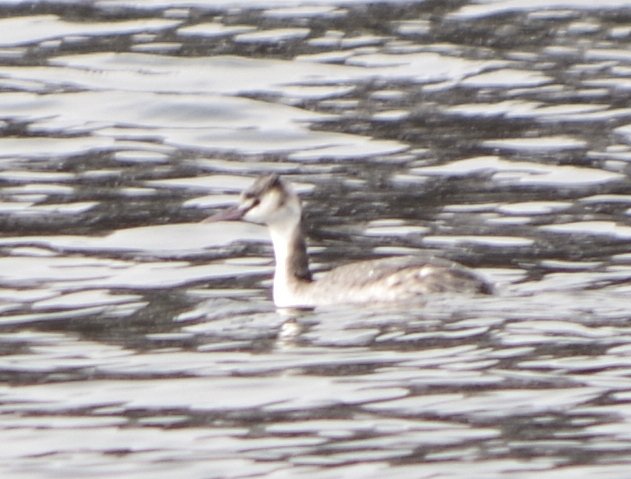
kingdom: Animalia
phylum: Chordata
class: Aves
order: Podicipediformes
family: Podicipedidae
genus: Podiceps
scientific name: Podiceps cristatus
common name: Great crested grebe
